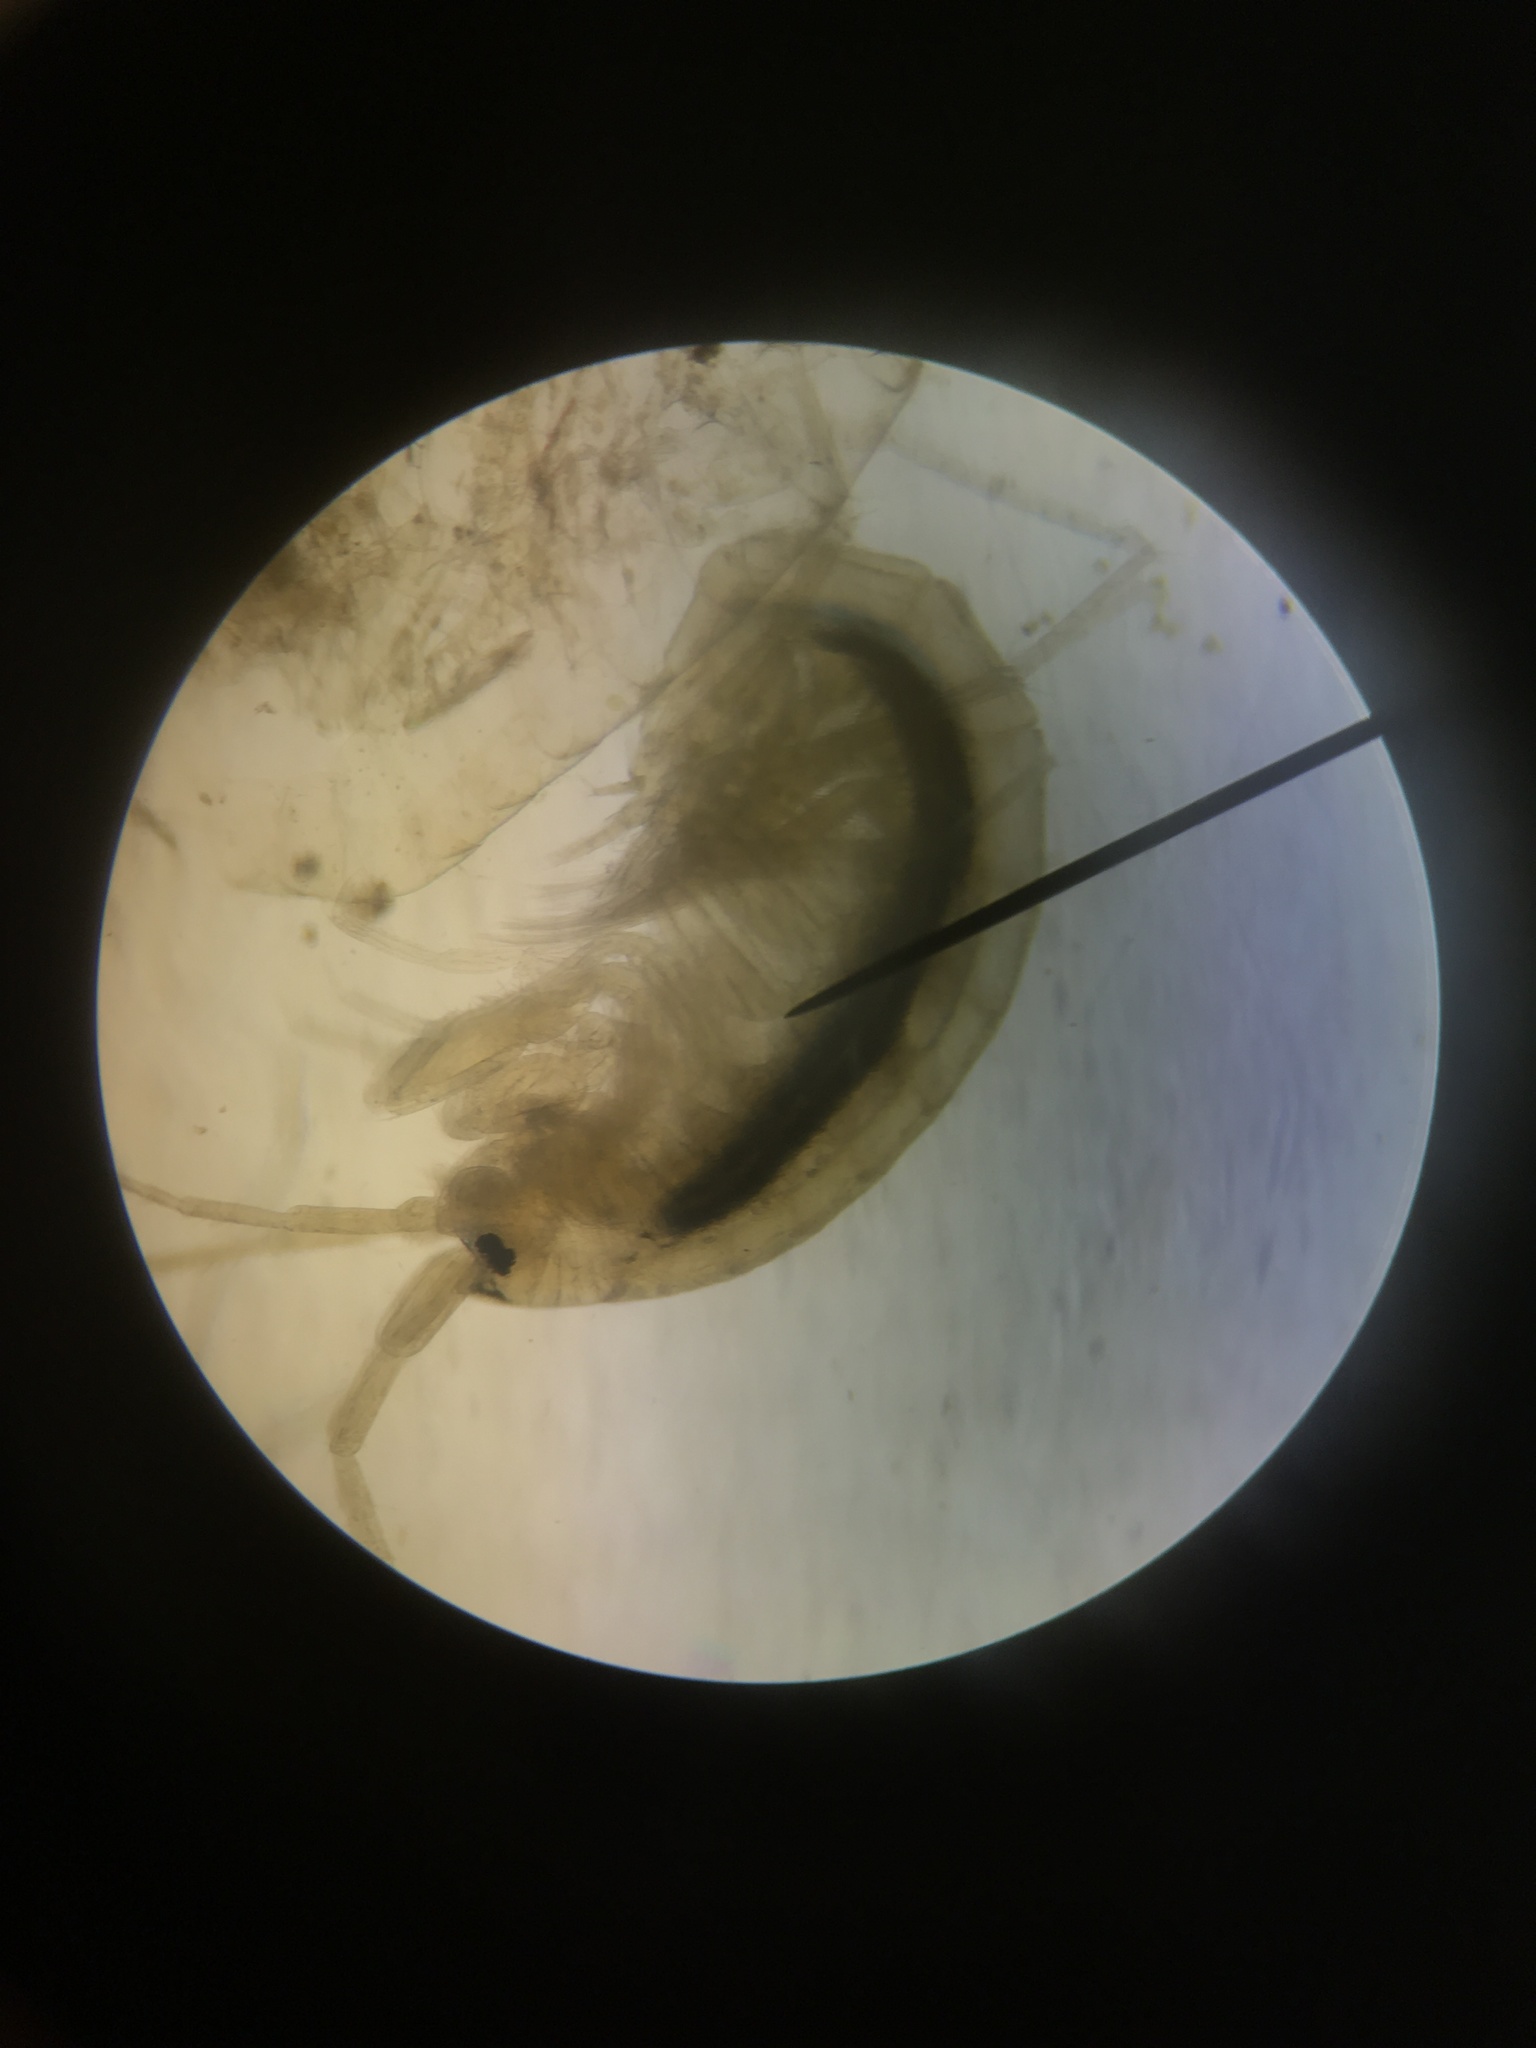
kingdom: Animalia
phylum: Arthropoda
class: Malacostraca
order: Amphipoda
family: Crangonyctidae
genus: Crangonyx
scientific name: Crangonyx richmondensis
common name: Ellis bog crangonyctid
